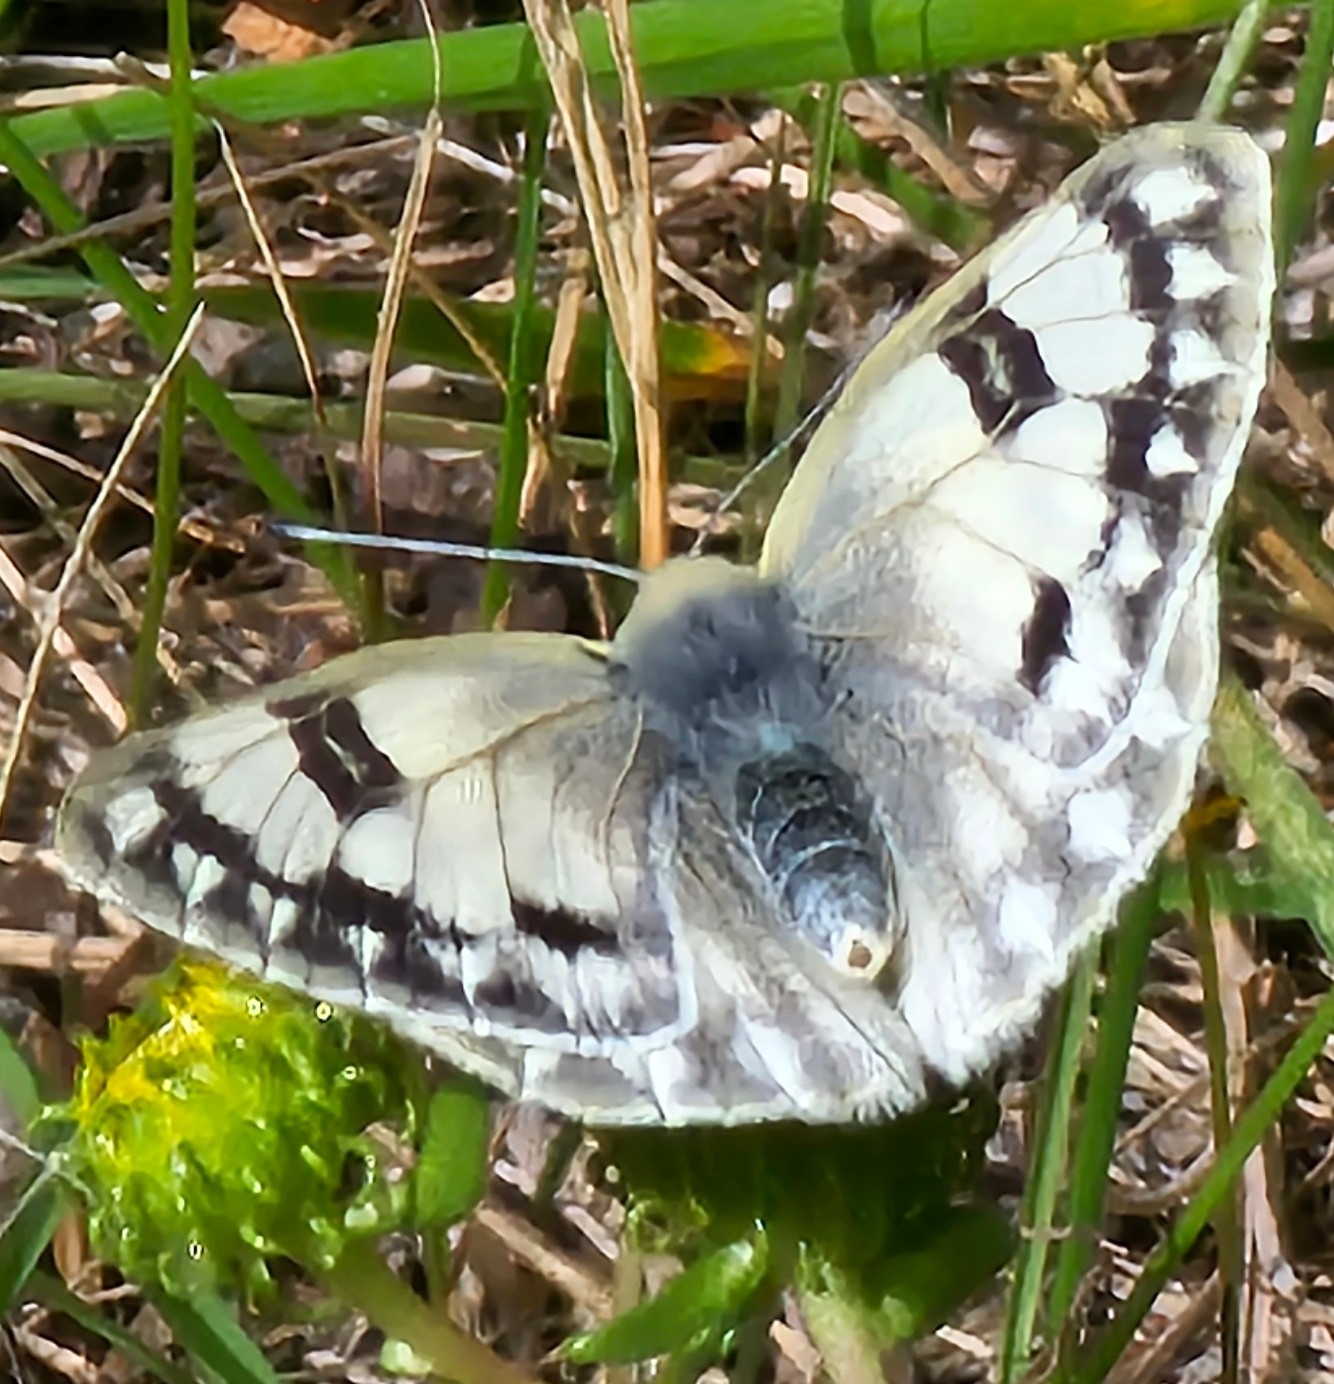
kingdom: Animalia
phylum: Arthropoda
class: Insecta
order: Lepidoptera
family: Pieridae
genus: Pontia
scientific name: Pontia occidentalis
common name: Western white
